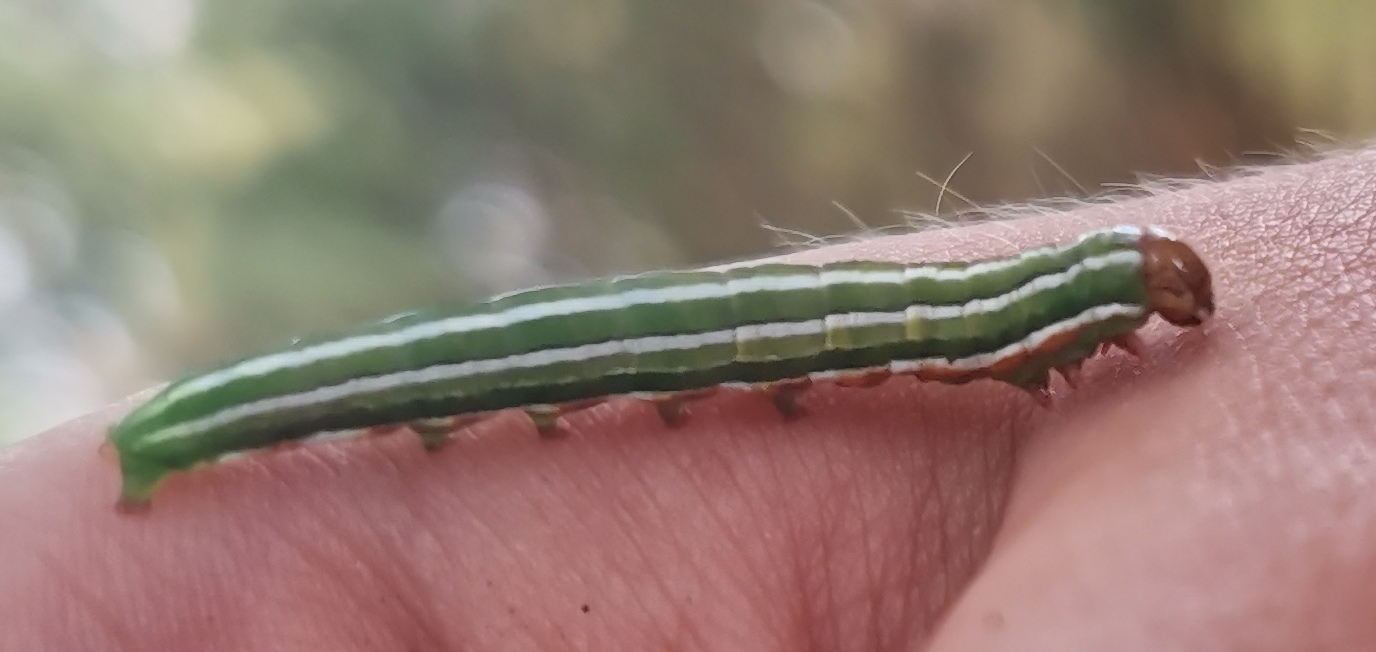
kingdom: Animalia
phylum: Arthropoda
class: Insecta
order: Lepidoptera
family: Noctuidae
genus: Panolis
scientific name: Panolis flammea
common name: Pine beauty
